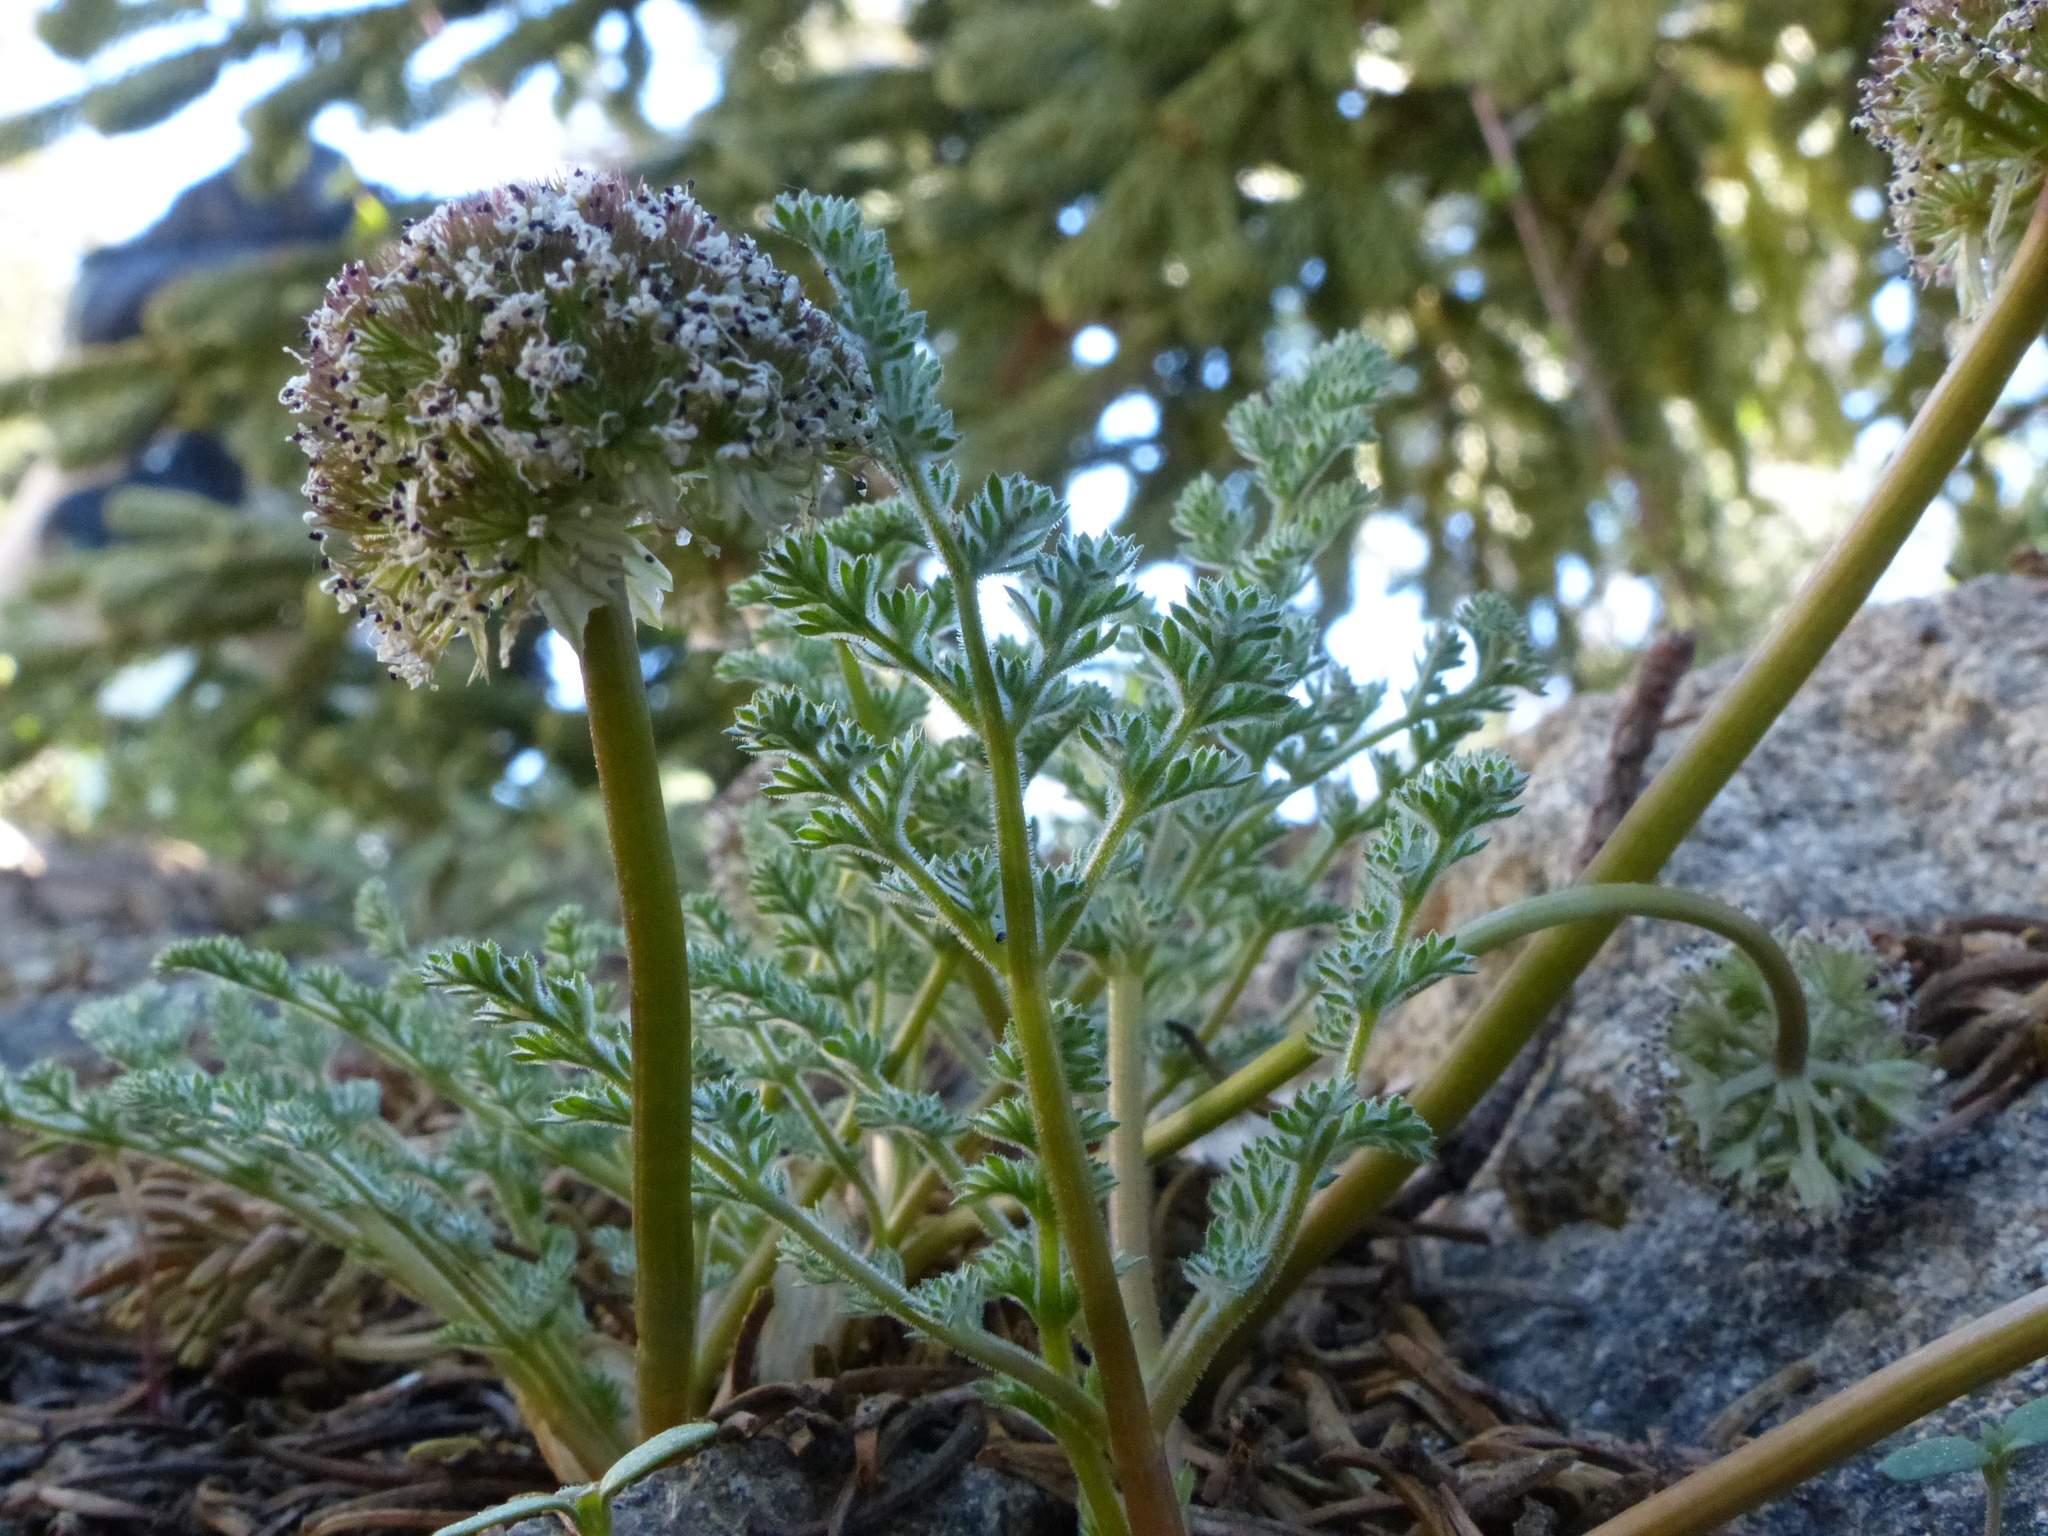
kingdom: Plantae
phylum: Tracheophyta
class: Magnoliopsida
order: Apiales
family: Apiaceae
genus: Oreonana
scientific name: Oreonana purpurascens
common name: Purple mountain-parsley
